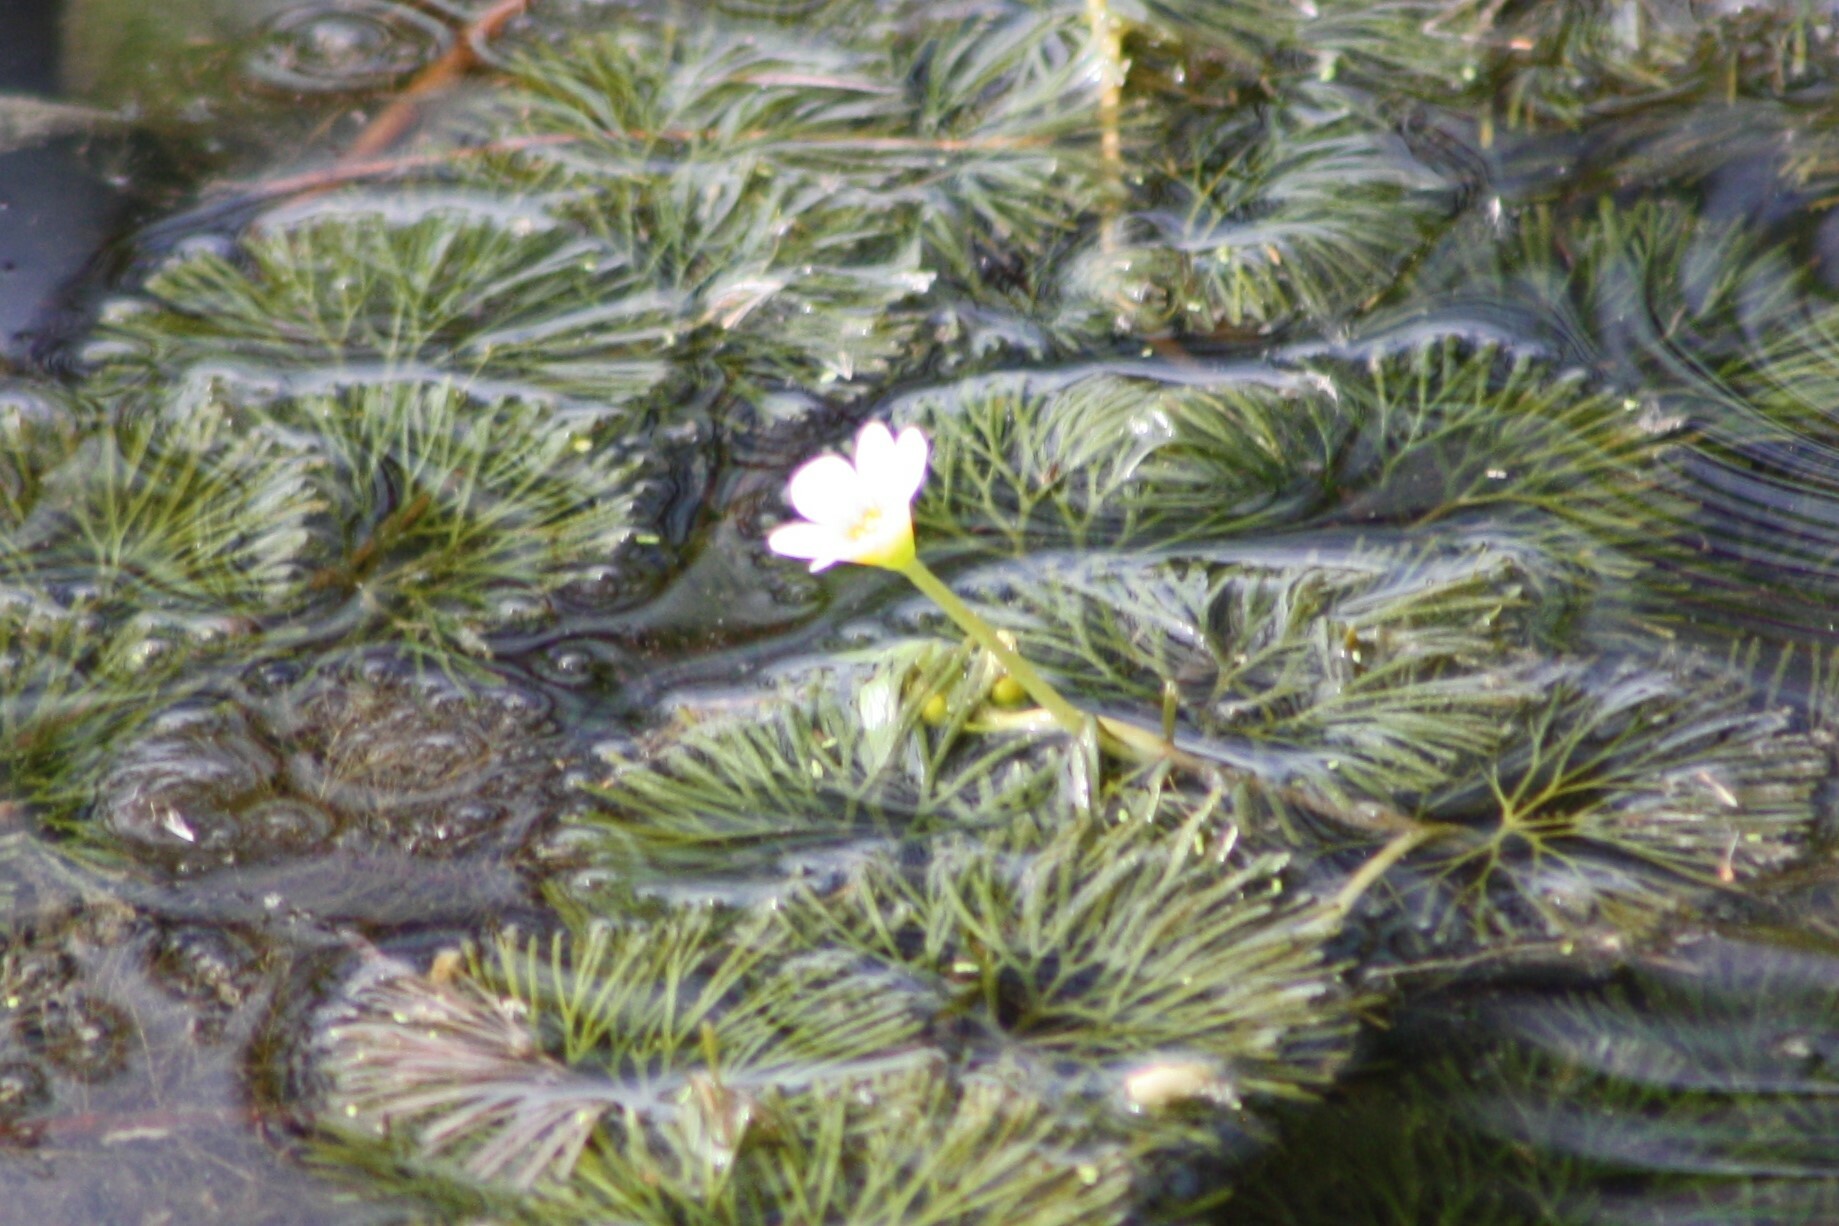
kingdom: Plantae
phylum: Tracheophyta
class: Magnoliopsida
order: Nymphaeales
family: Cabombaceae
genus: Cabomba
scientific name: Cabomba caroliniana
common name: Fanwort
